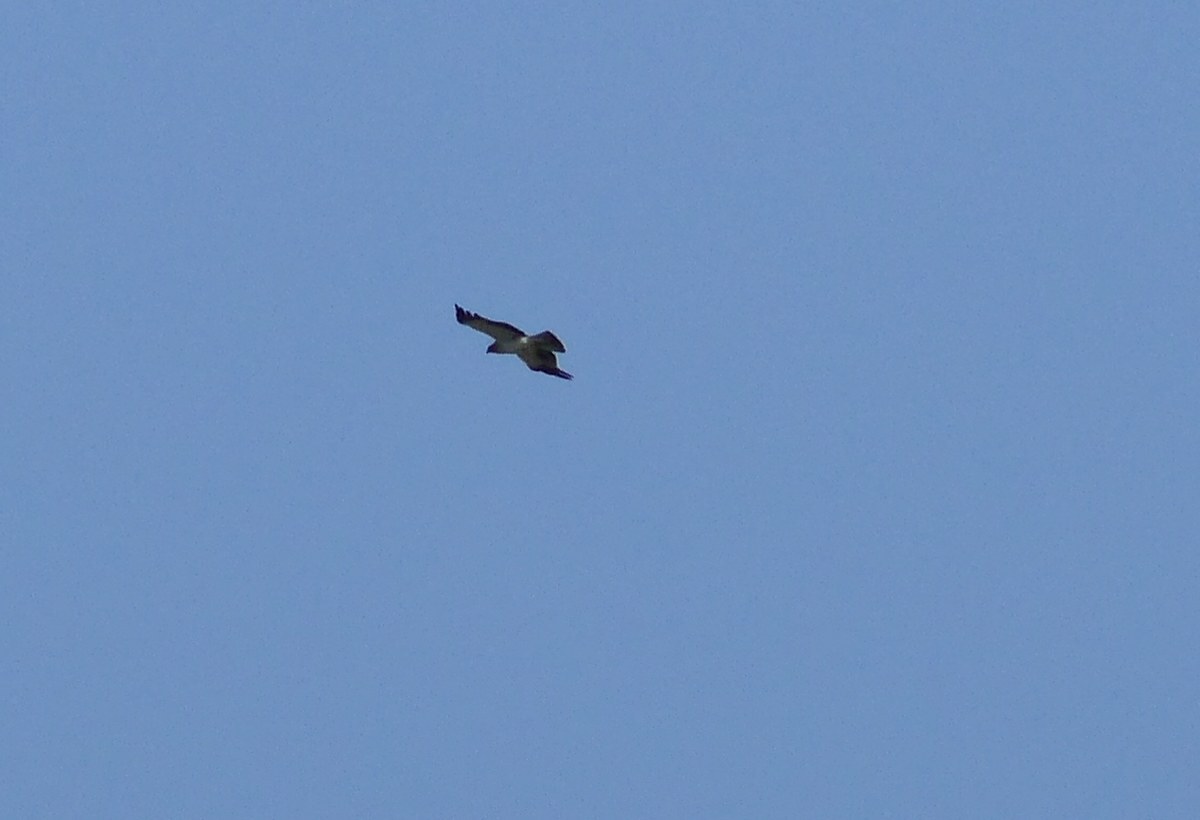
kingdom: Animalia
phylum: Chordata
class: Aves
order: Accipitriformes
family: Accipitridae
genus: Hieraaetus
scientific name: Hieraaetus pennatus
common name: Booted eagle
